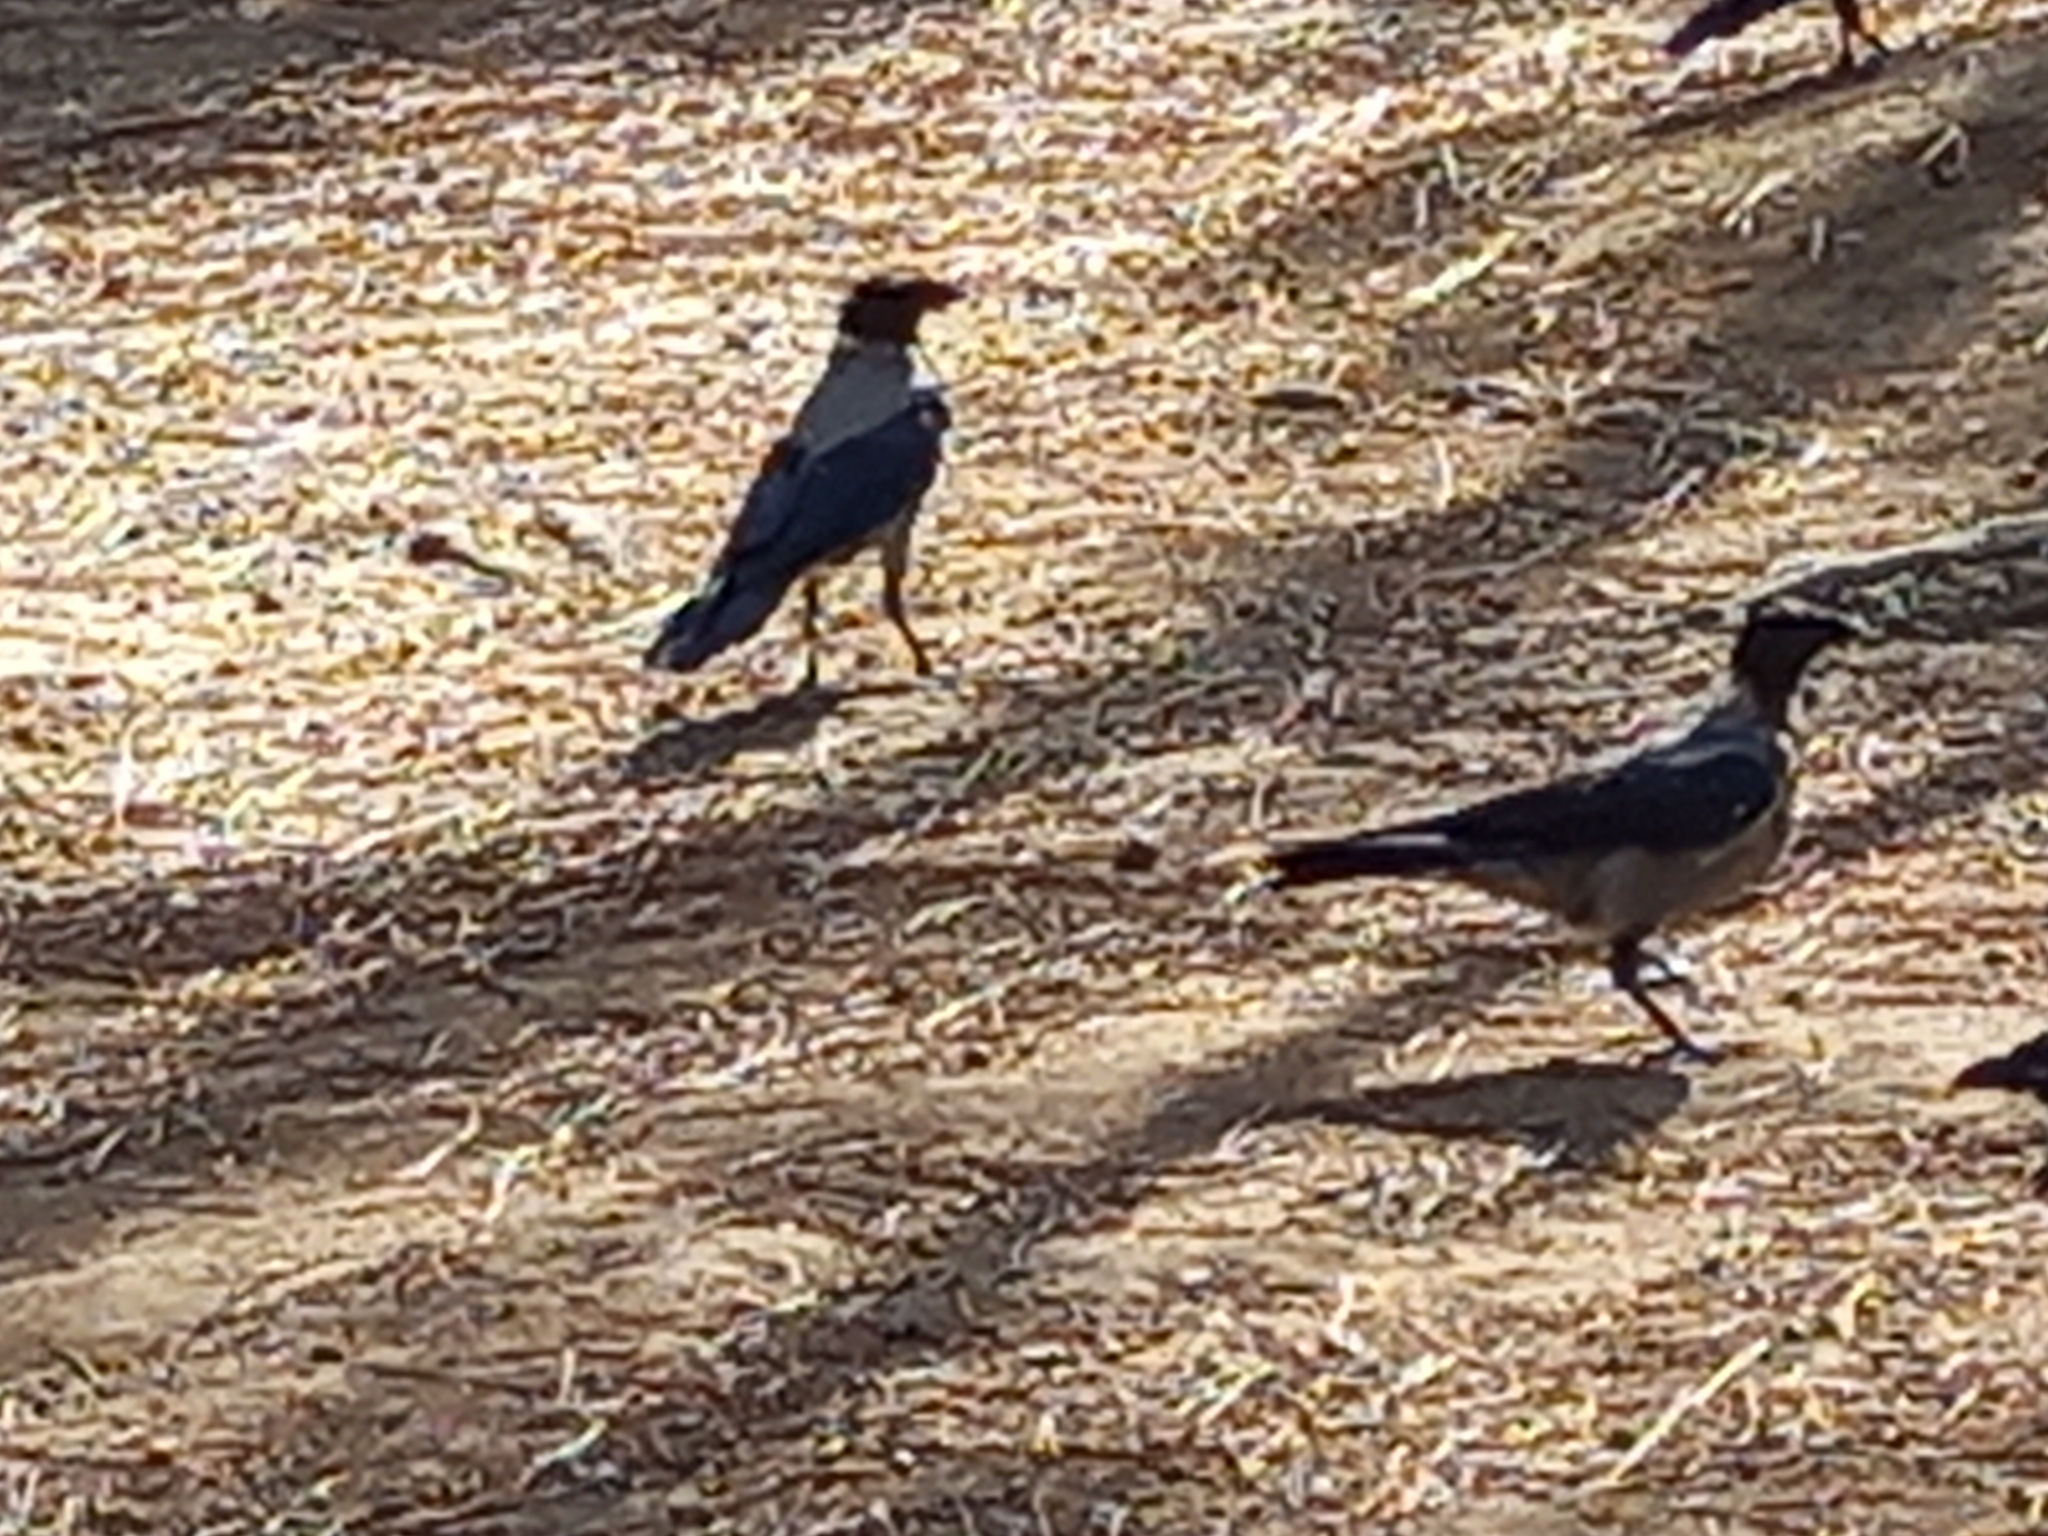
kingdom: Animalia
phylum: Chordata
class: Aves
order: Passeriformes
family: Corvidae
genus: Corvus
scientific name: Corvus cornix
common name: Hooded crow
